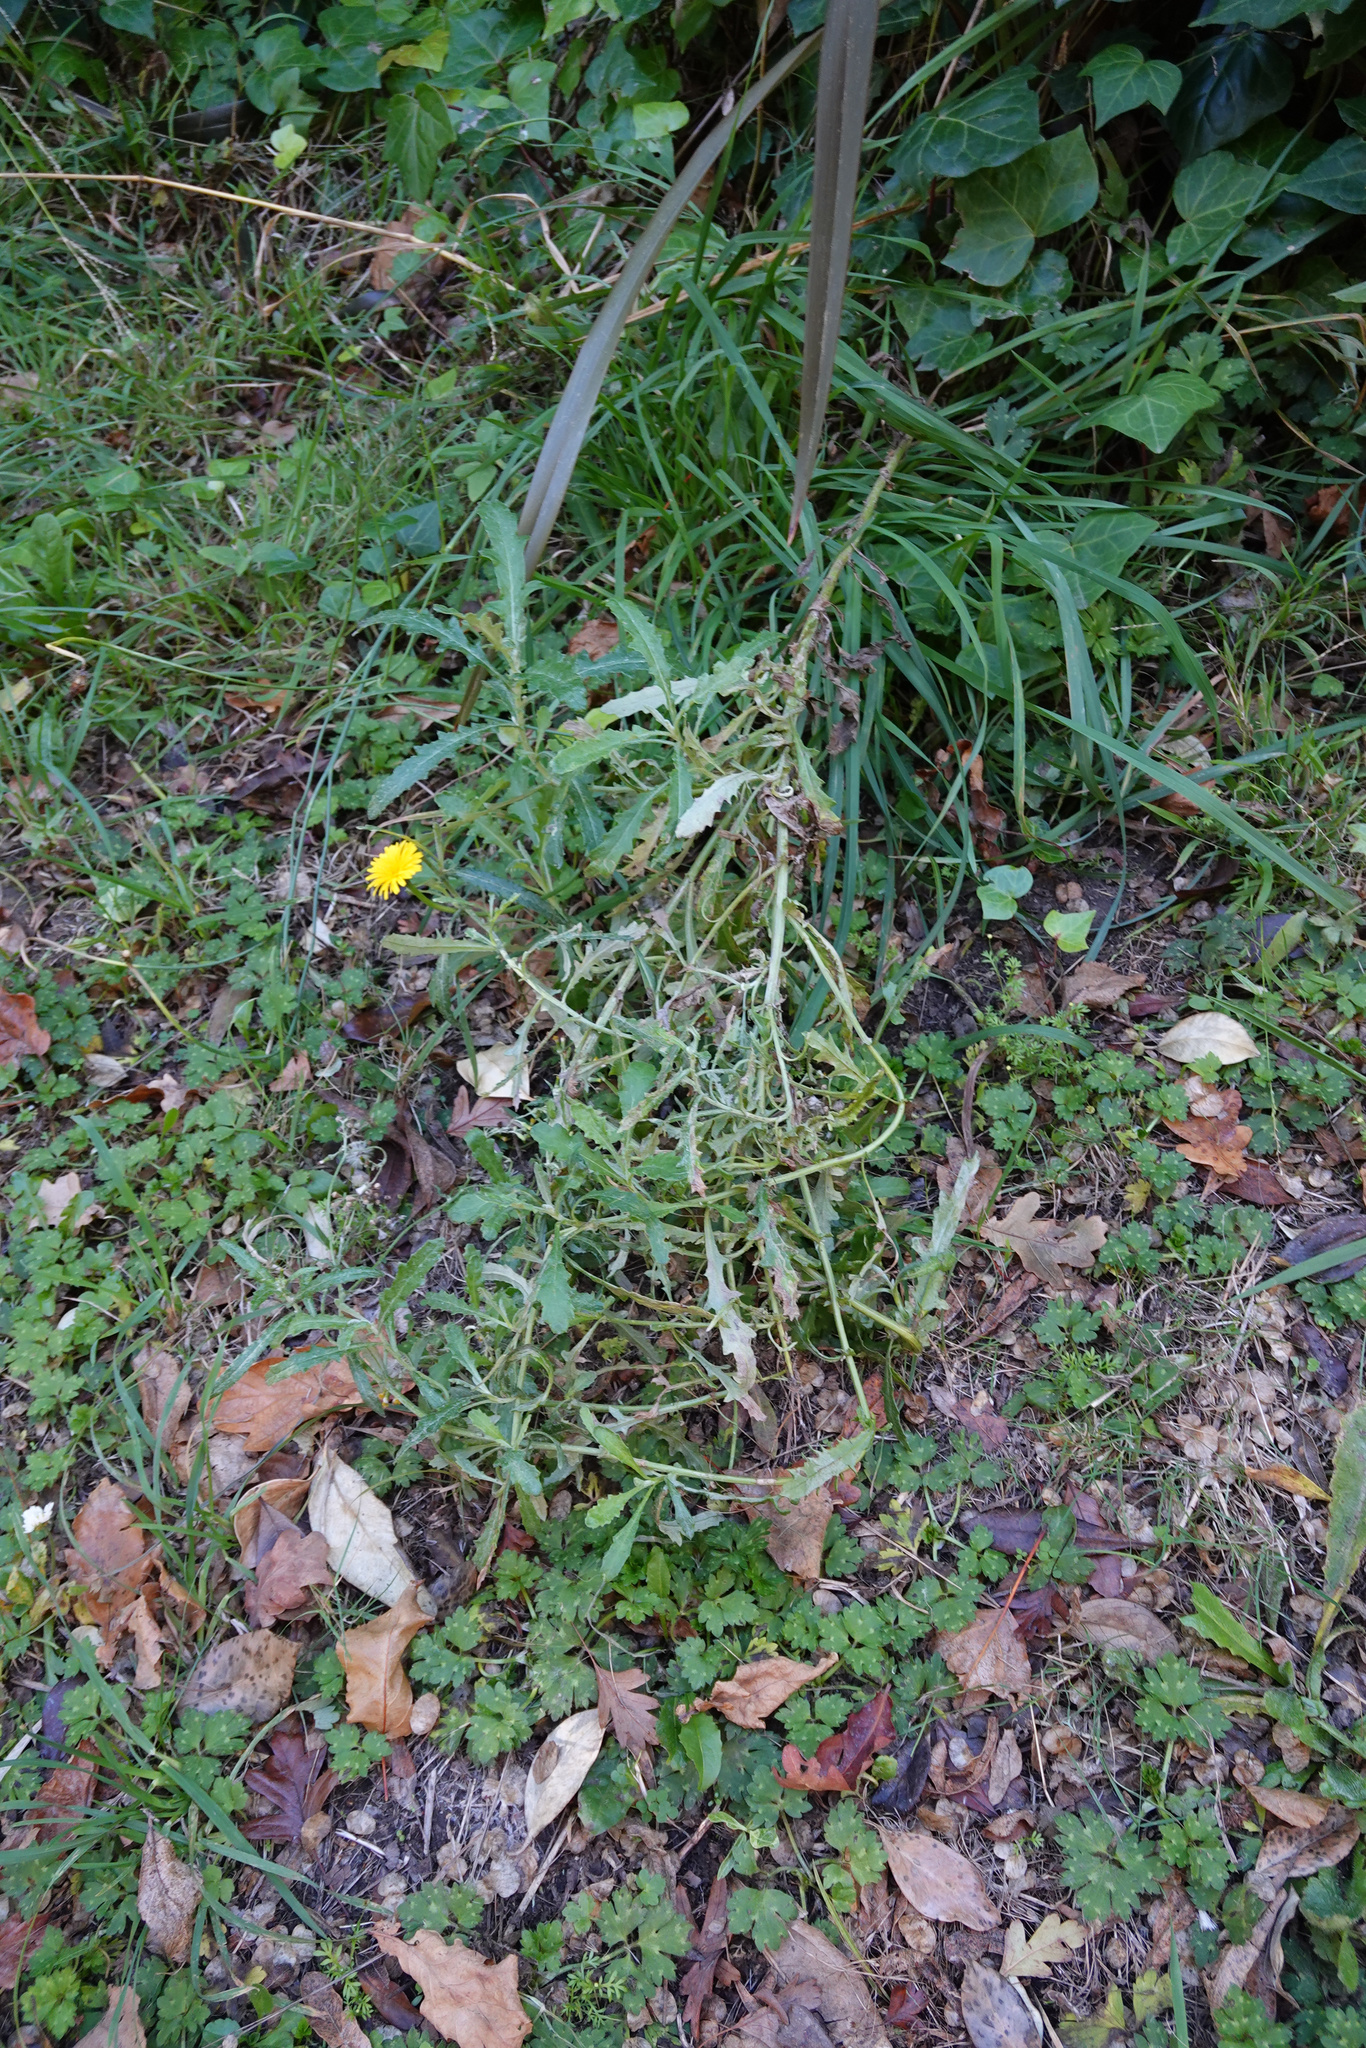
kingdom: Plantae
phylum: Tracheophyta
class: Magnoliopsida
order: Asterales
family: Asteraceae
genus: Senecio
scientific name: Senecio glomeratus
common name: Cutleaf burnweed
